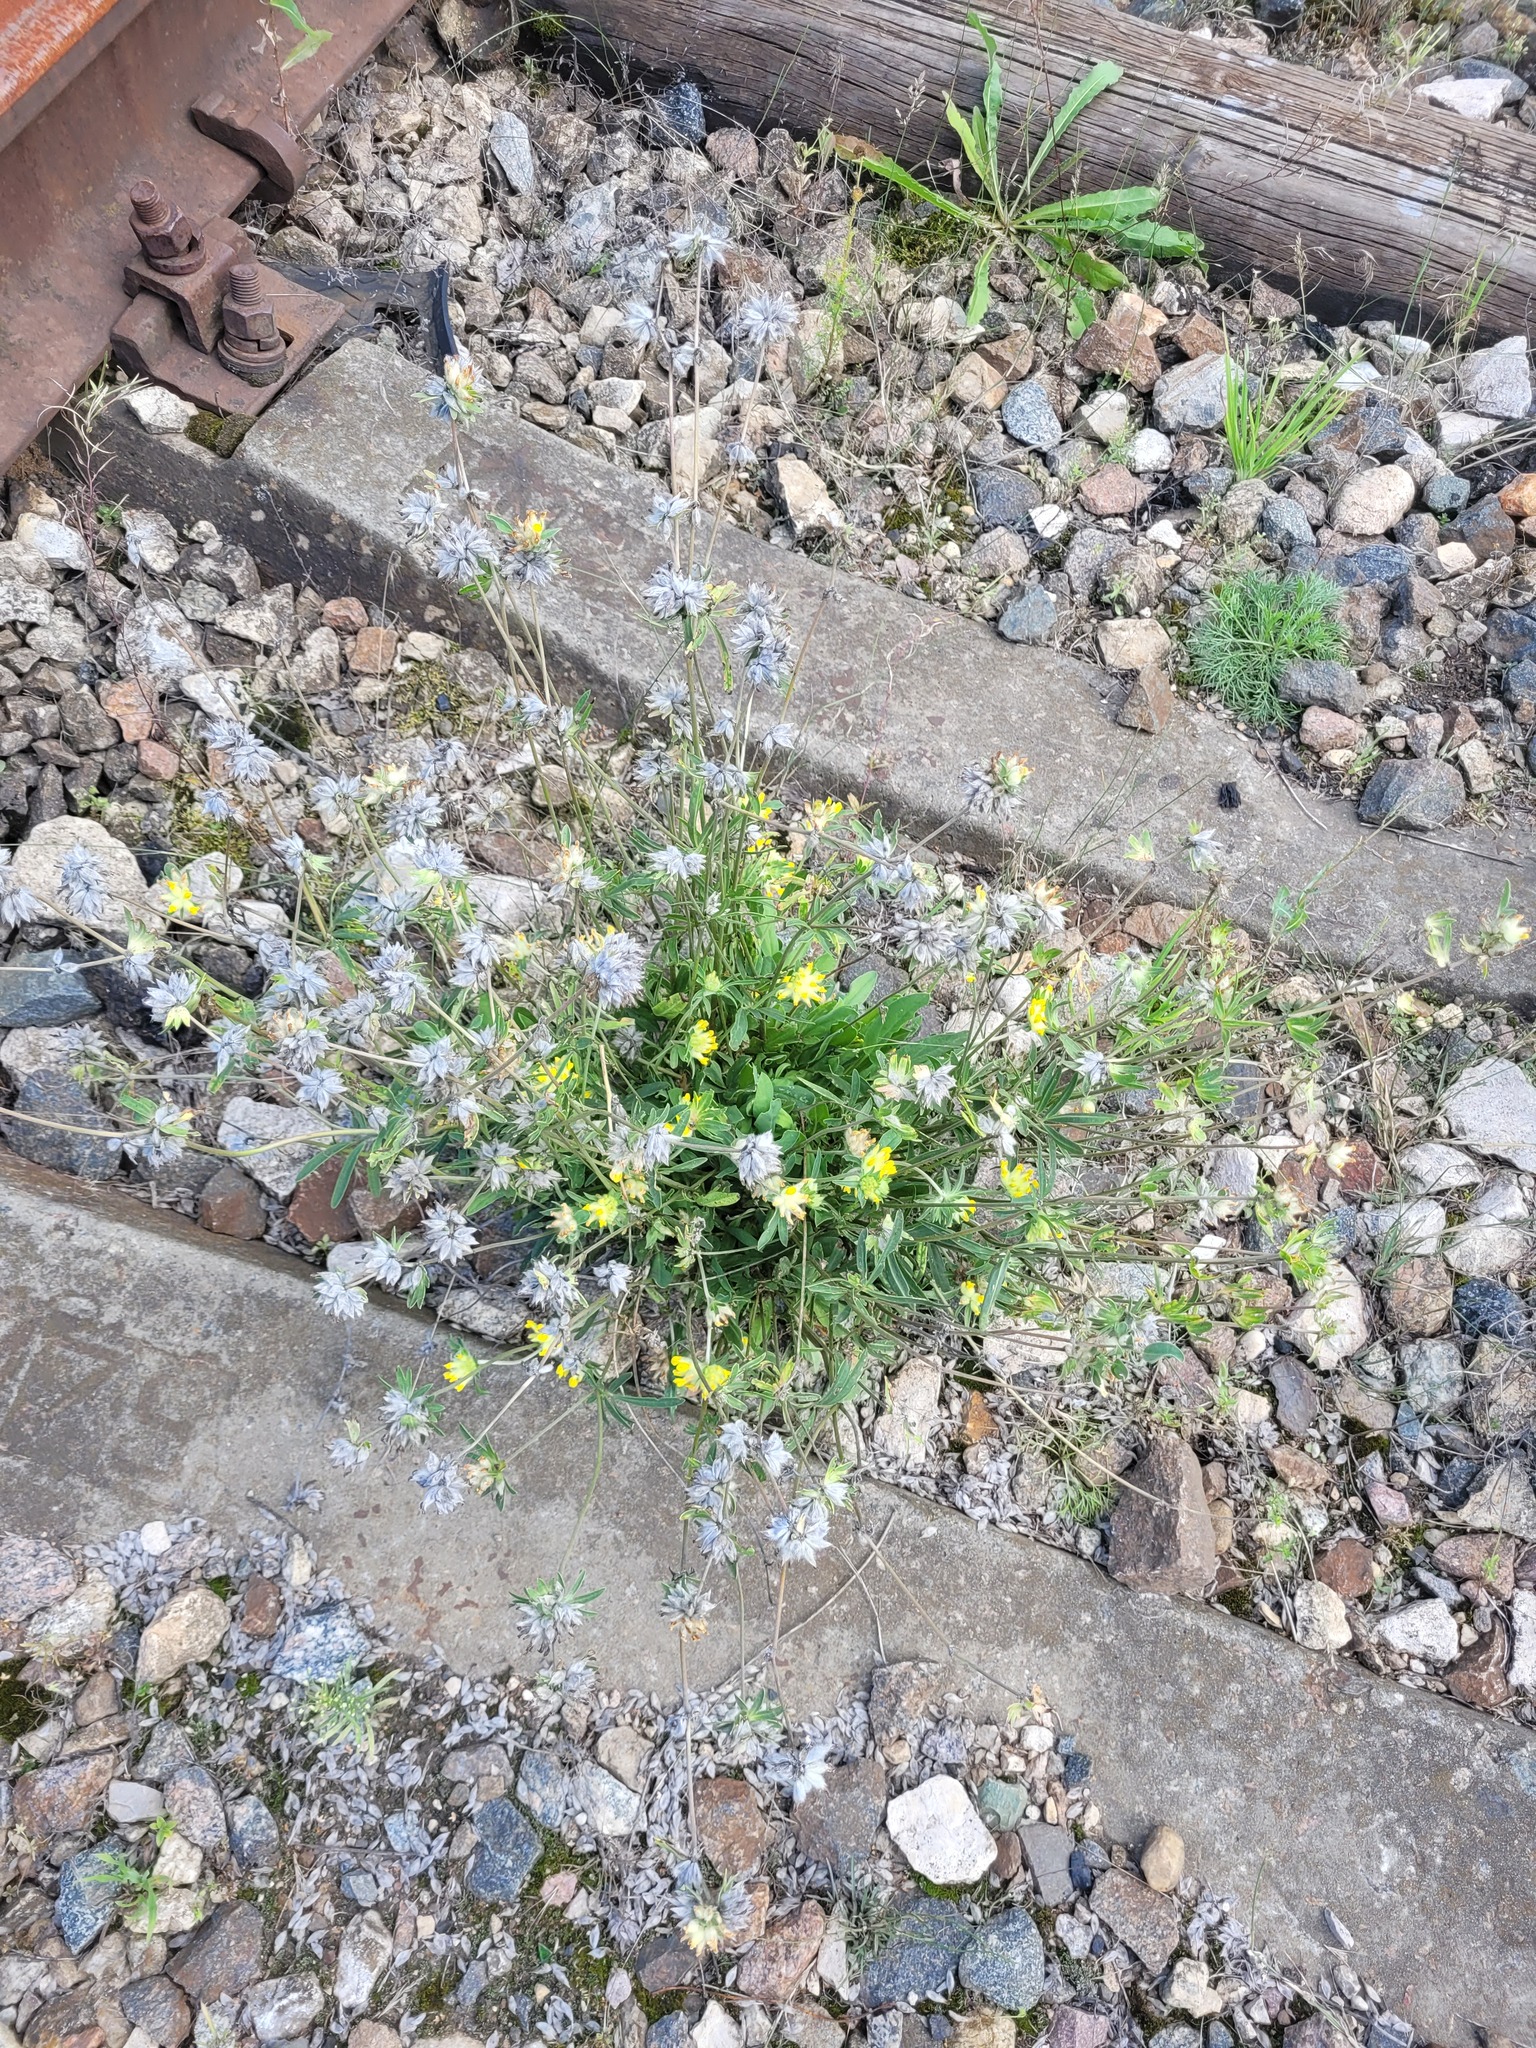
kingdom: Plantae
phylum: Tracheophyta
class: Magnoliopsida
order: Fabales
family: Fabaceae
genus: Anthyllis
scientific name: Anthyllis vulneraria
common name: Kidney vetch
